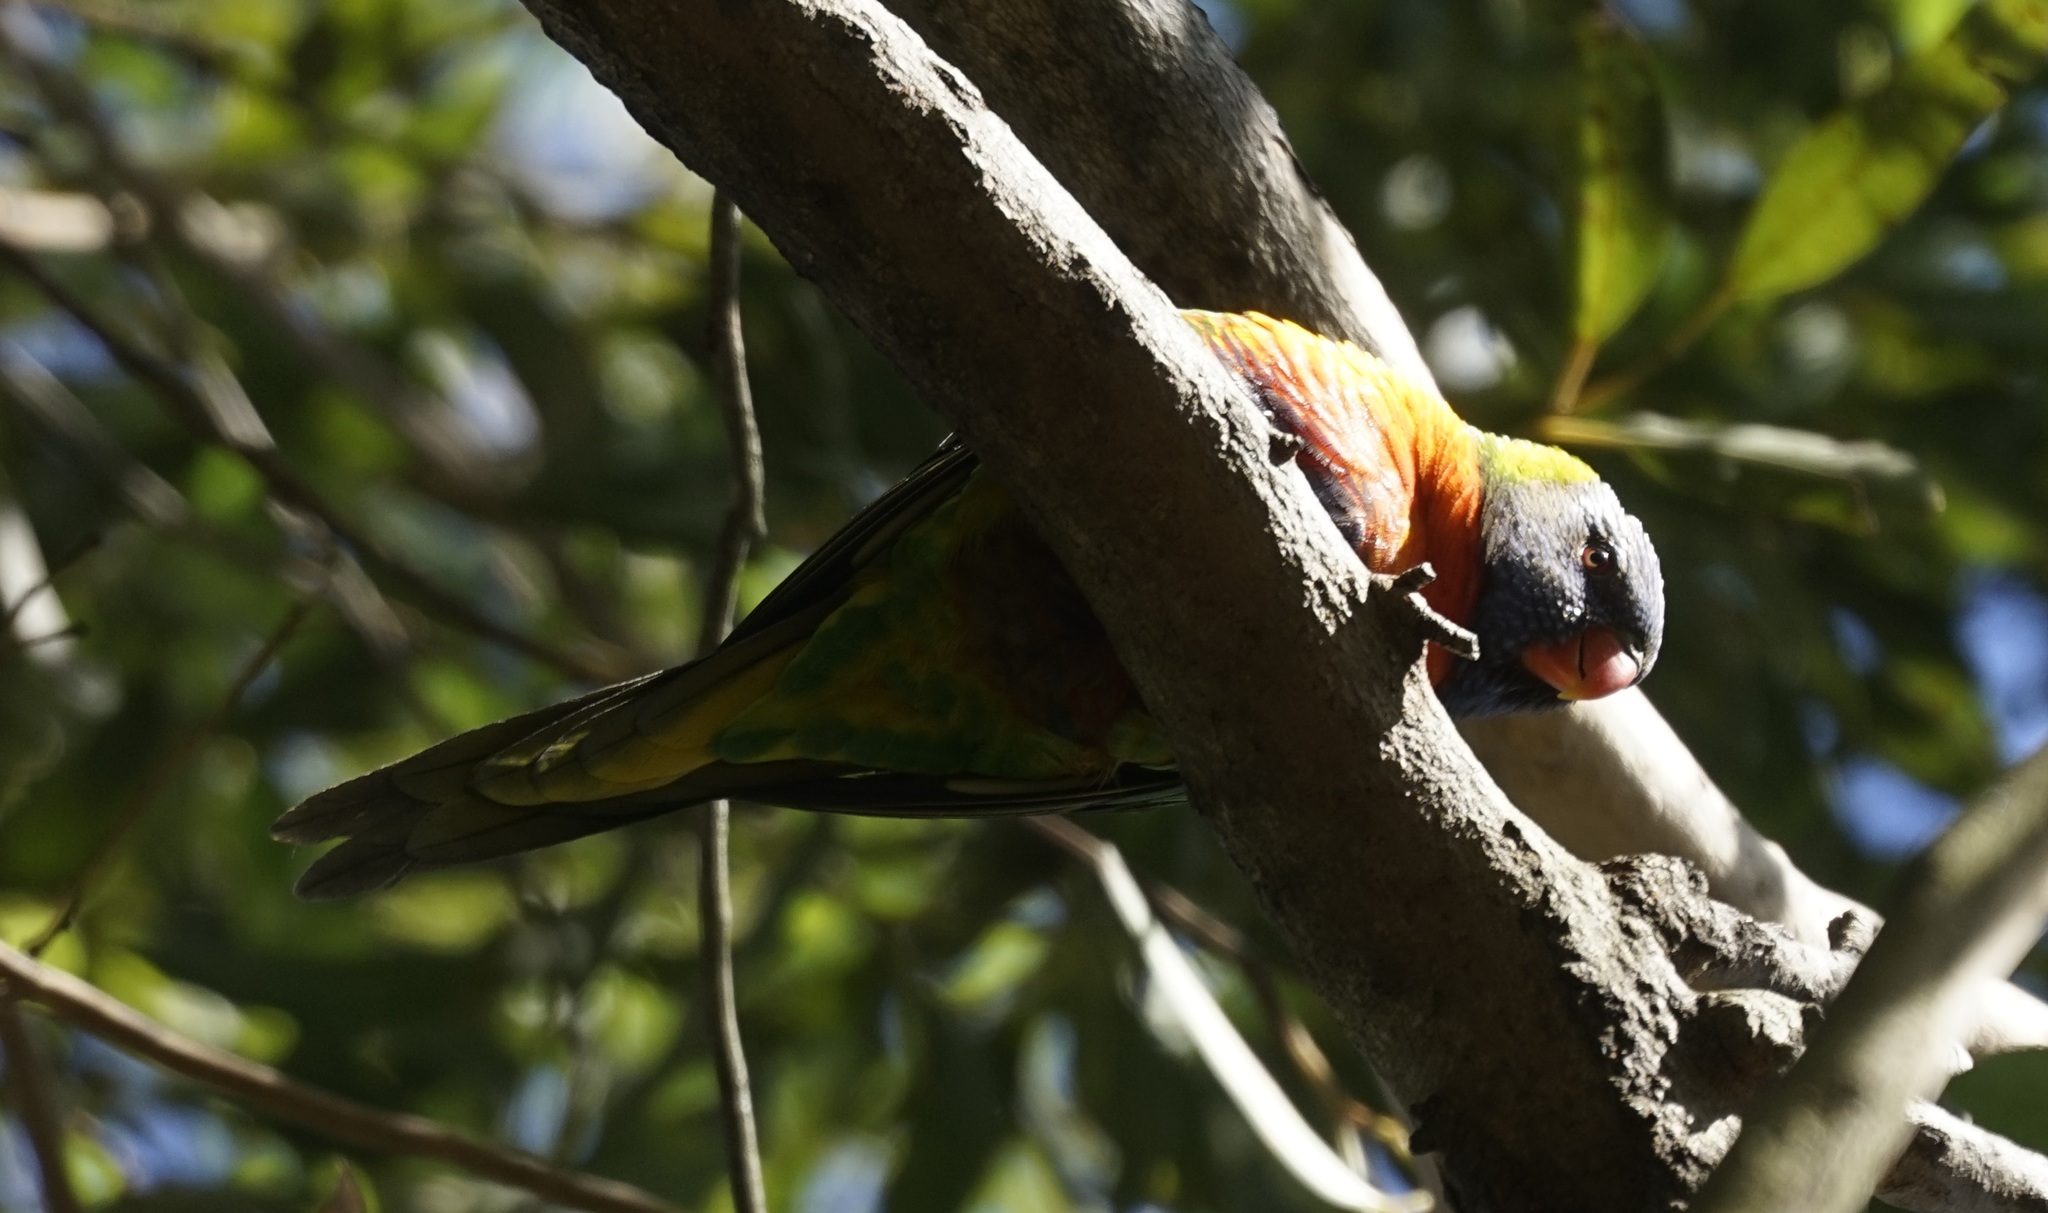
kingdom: Animalia
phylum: Chordata
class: Aves
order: Psittaciformes
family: Psittacidae
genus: Trichoglossus
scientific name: Trichoglossus haematodus
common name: Coconut lorikeet
